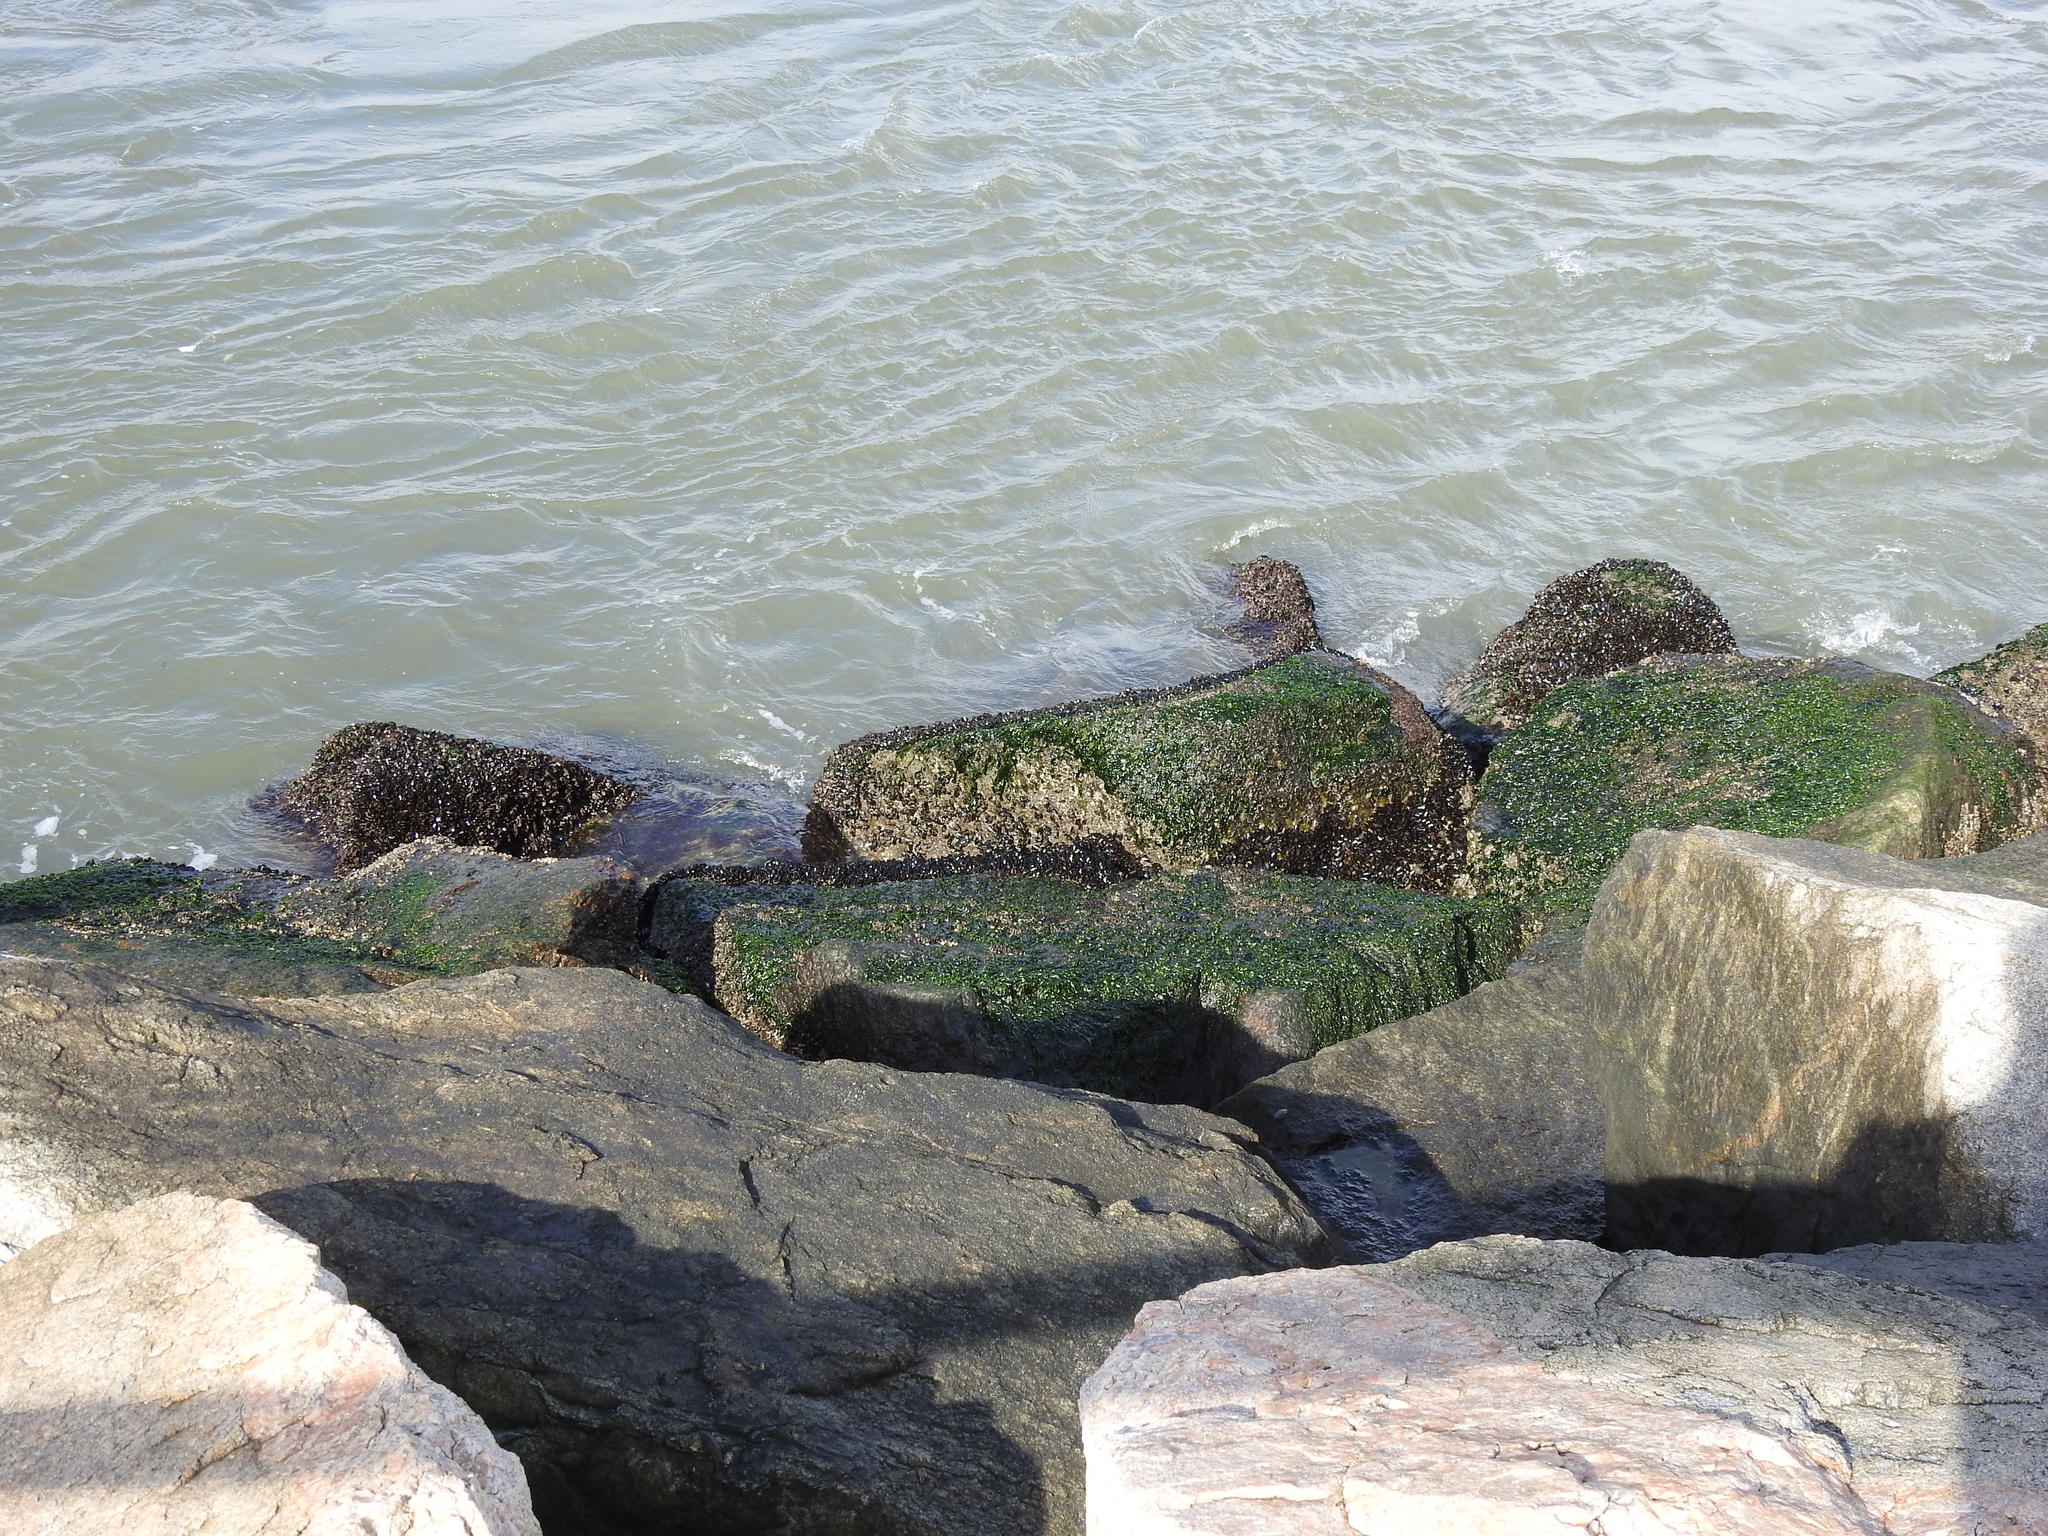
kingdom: Animalia
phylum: Mollusca
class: Bivalvia
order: Mytilida
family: Mytilidae
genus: Mytilus
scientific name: Mytilus edulis
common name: Blue mussel
